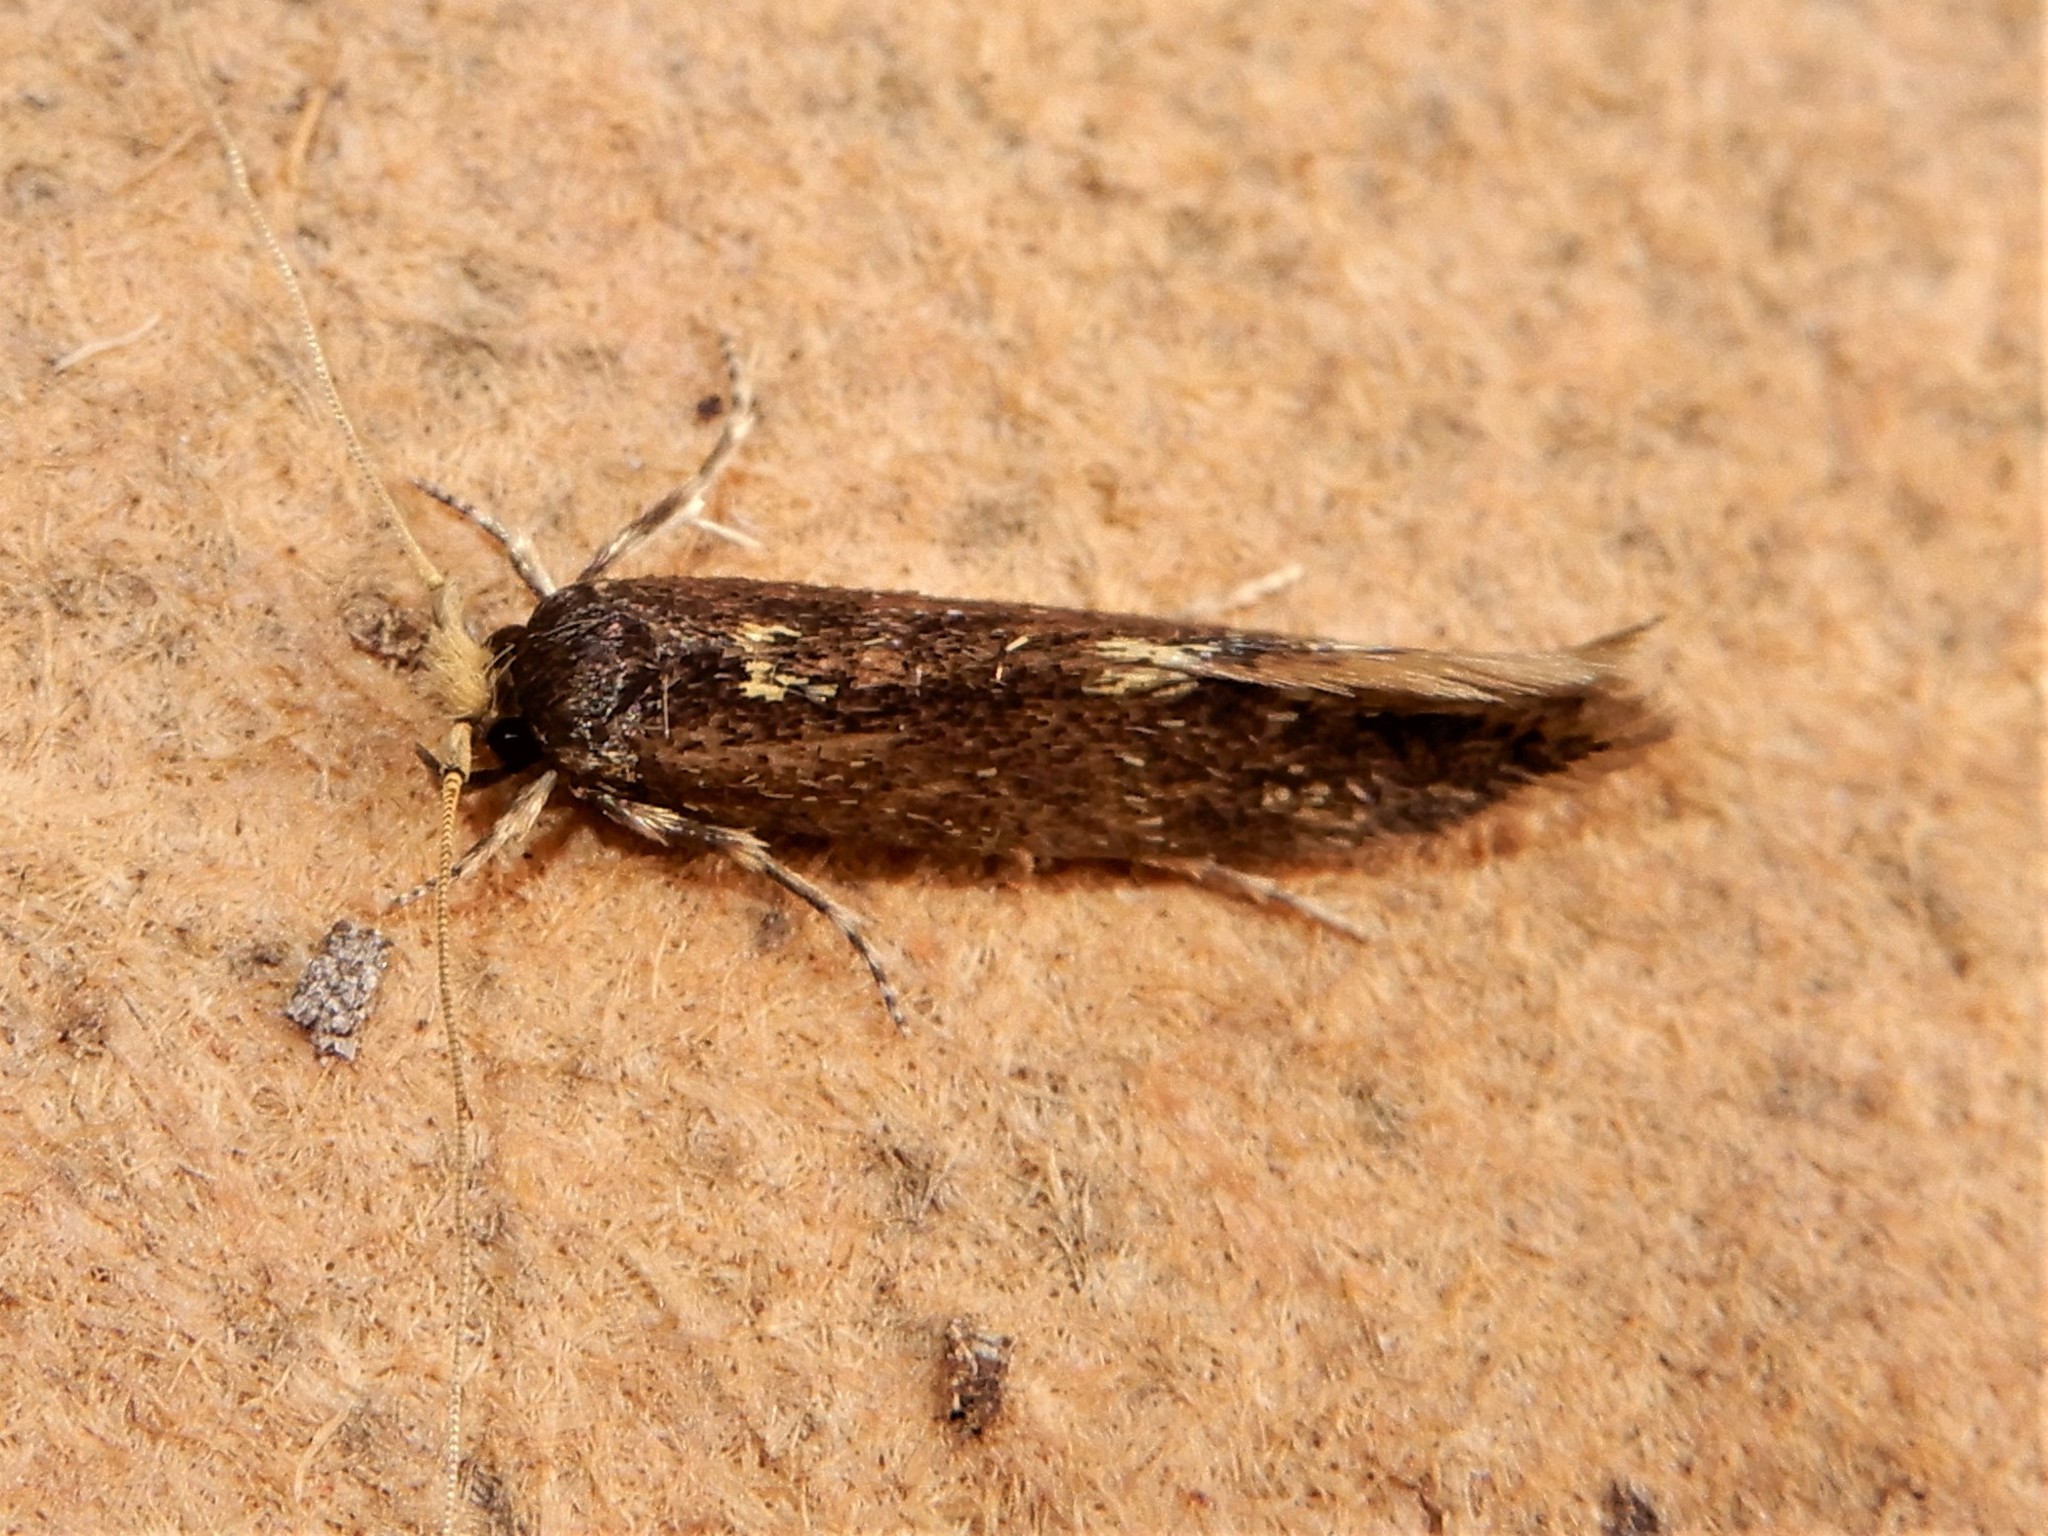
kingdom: Animalia
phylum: Arthropoda
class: Insecta
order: Lepidoptera
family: Tineidae
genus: Opogona
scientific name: Opogona omoscopa
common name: Moth
